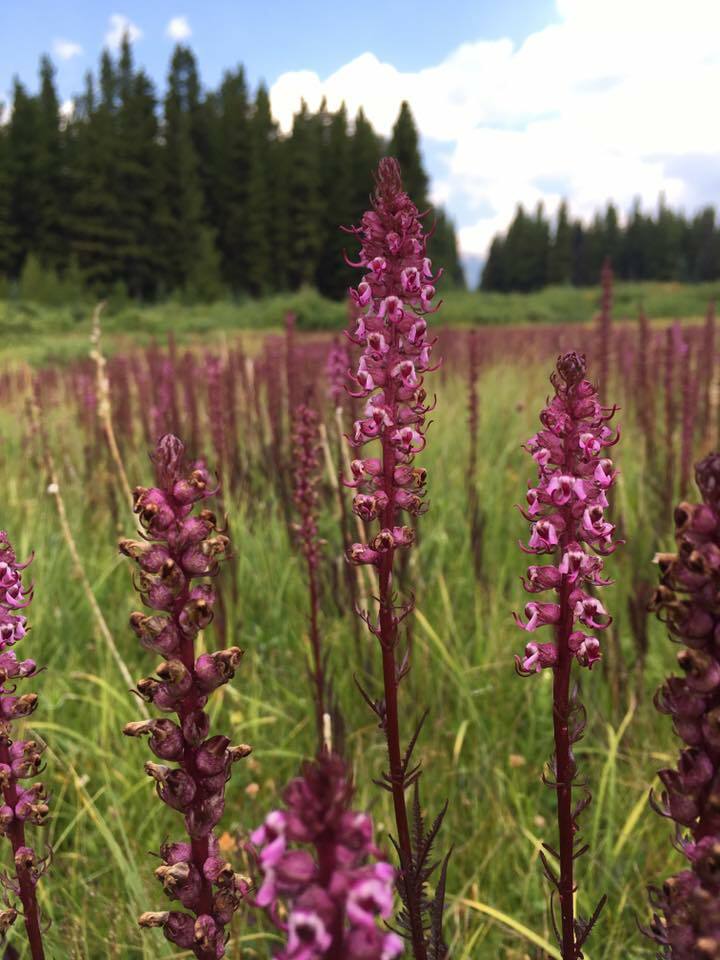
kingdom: Plantae
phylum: Tracheophyta
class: Magnoliopsida
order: Lamiales
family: Orobanchaceae
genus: Pedicularis
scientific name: Pedicularis groenlandica
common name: Elephant's-head
